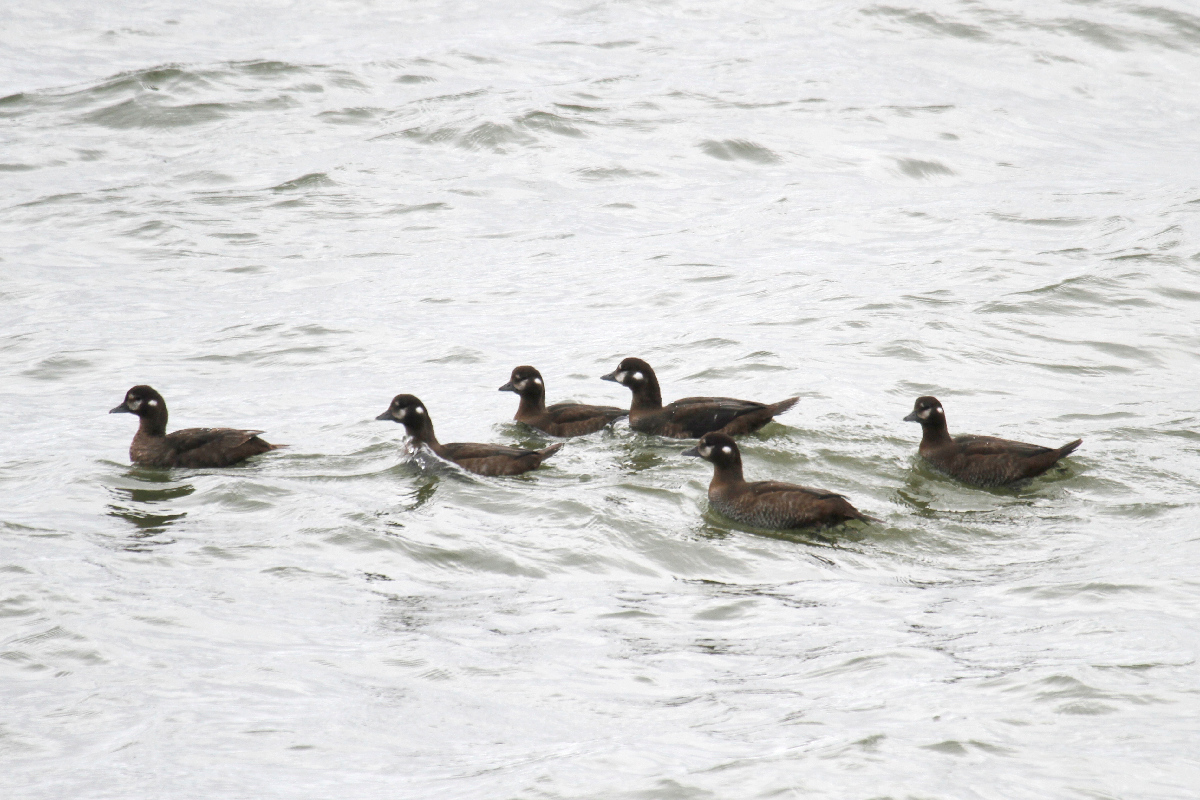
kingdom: Animalia
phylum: Chordata
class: Aves
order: Anseriformes
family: Anatidae
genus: Histrionicus
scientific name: Histrionicus histrionicus
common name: Harlequin duck
